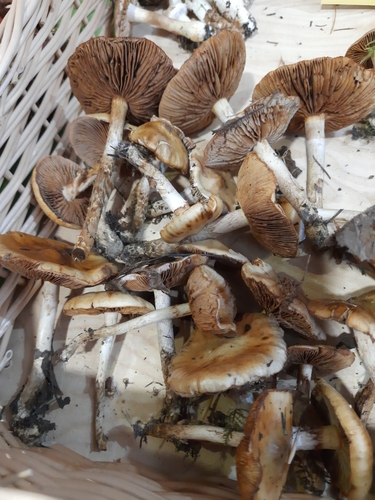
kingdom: Fungi
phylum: Basidiomycota
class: Agaricomycetes
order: Agaricales
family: Cortinariaceae
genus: Cortinarius
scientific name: Cortinarius trivialis
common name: Girdled webcap
